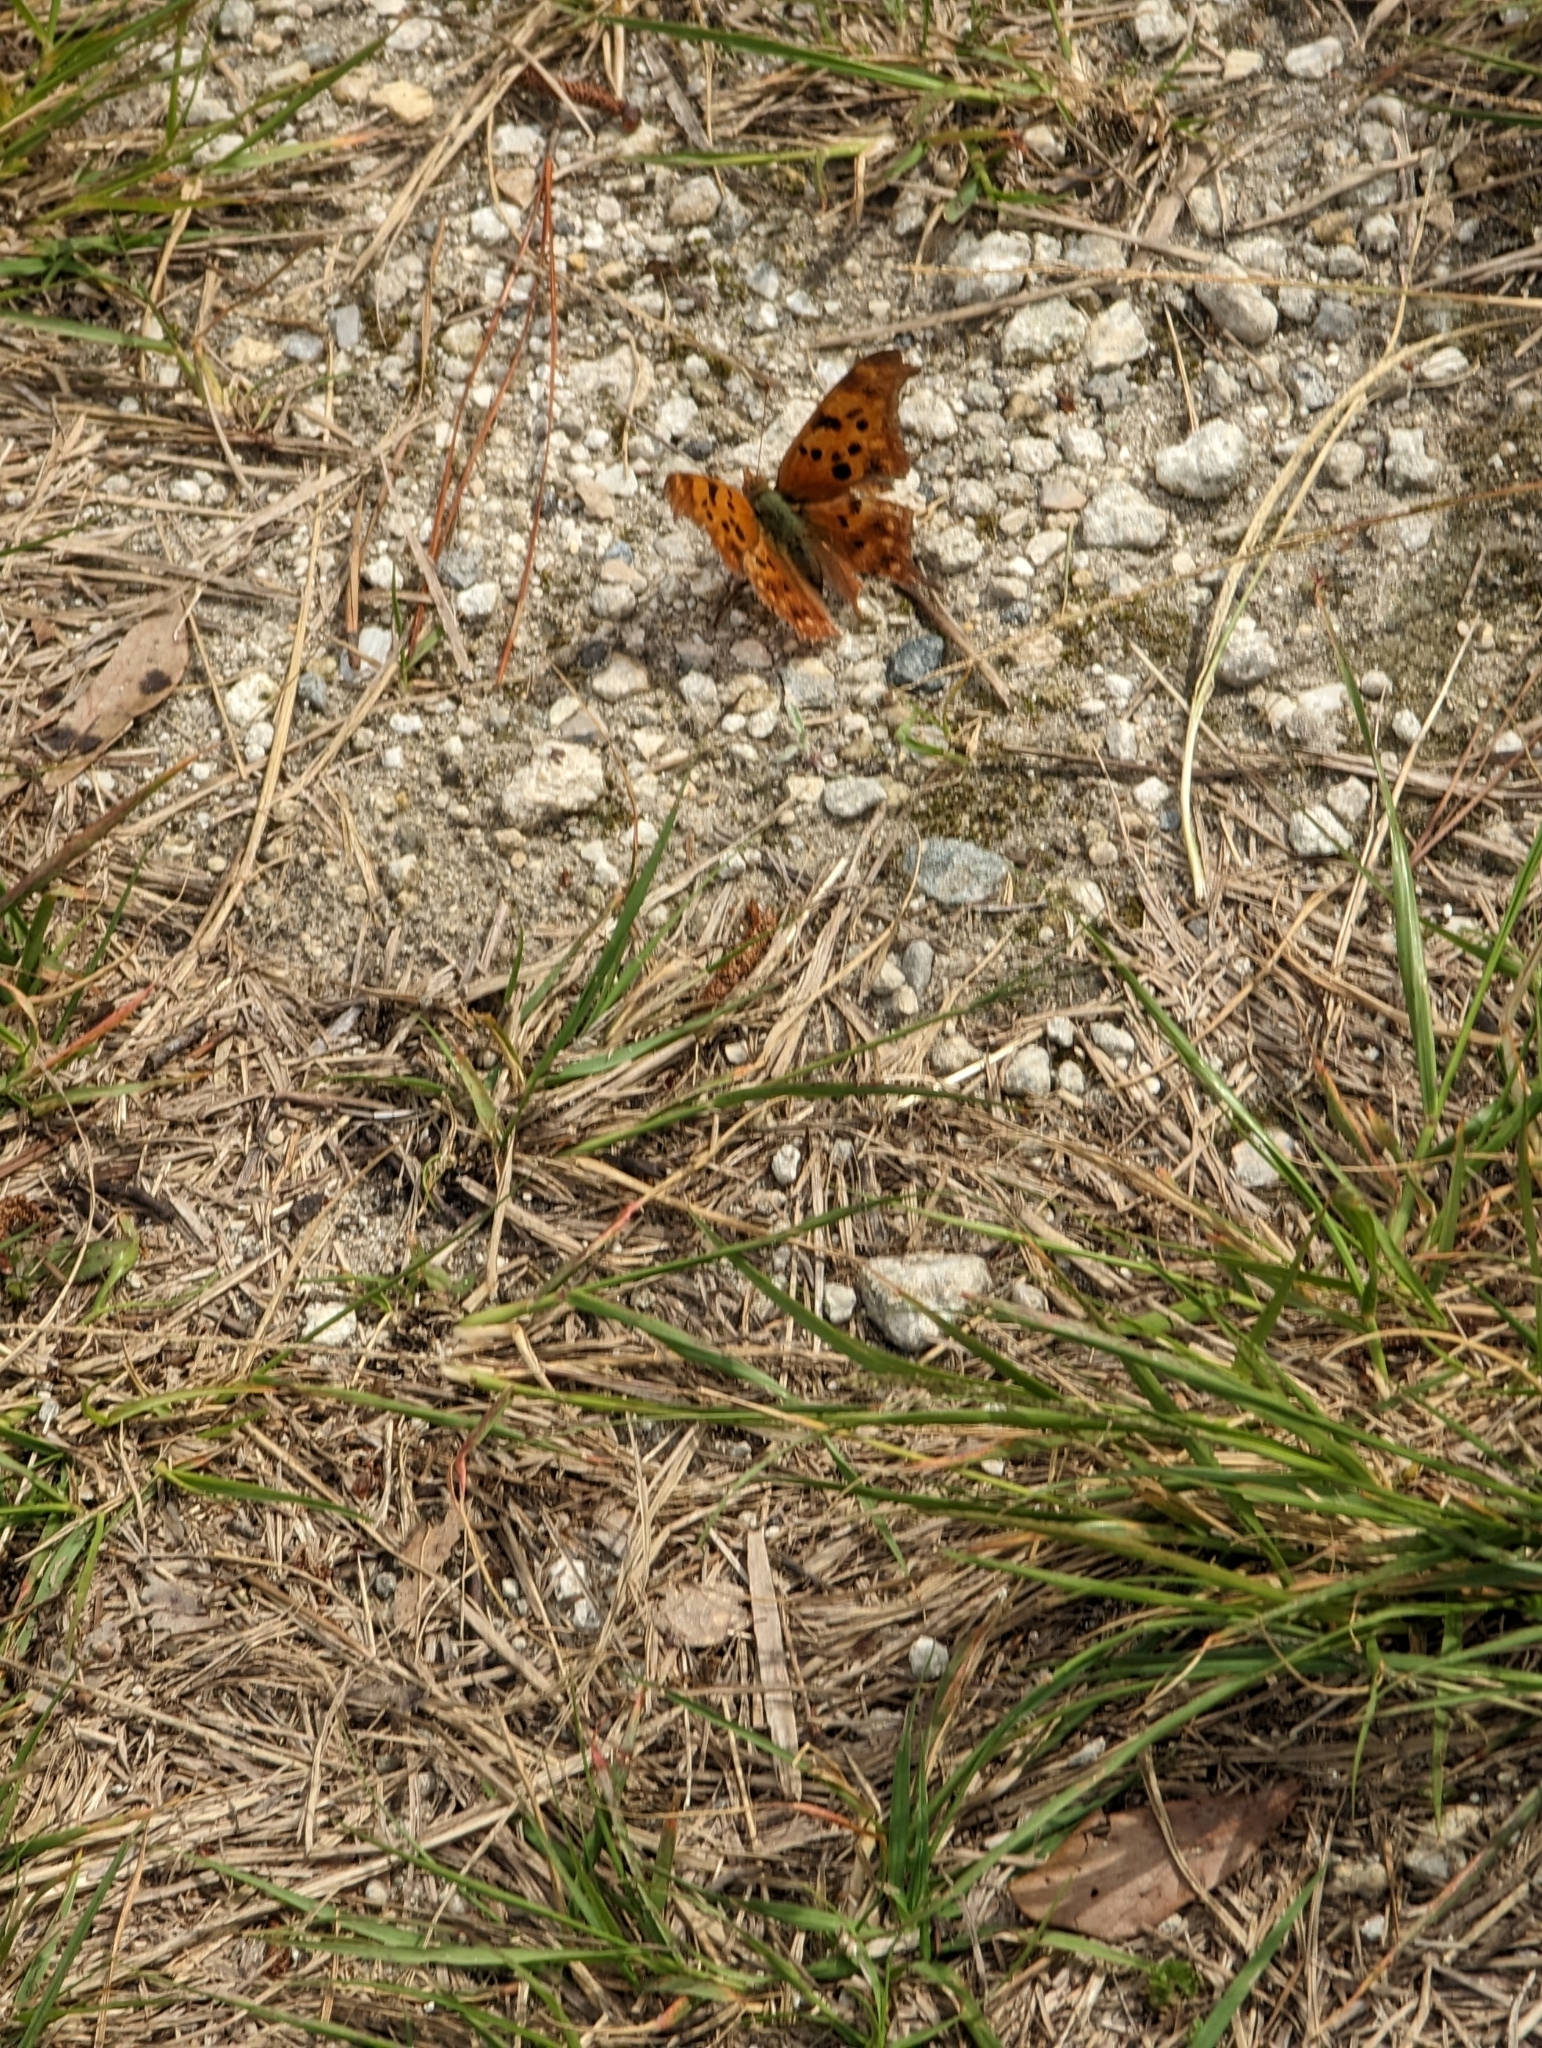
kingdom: Animalia
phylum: Arthropoda
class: Insecta
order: Lepidoptera
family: Nymphalidae
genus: Polygonia
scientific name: Polygonia interrogationis
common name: Question mark
